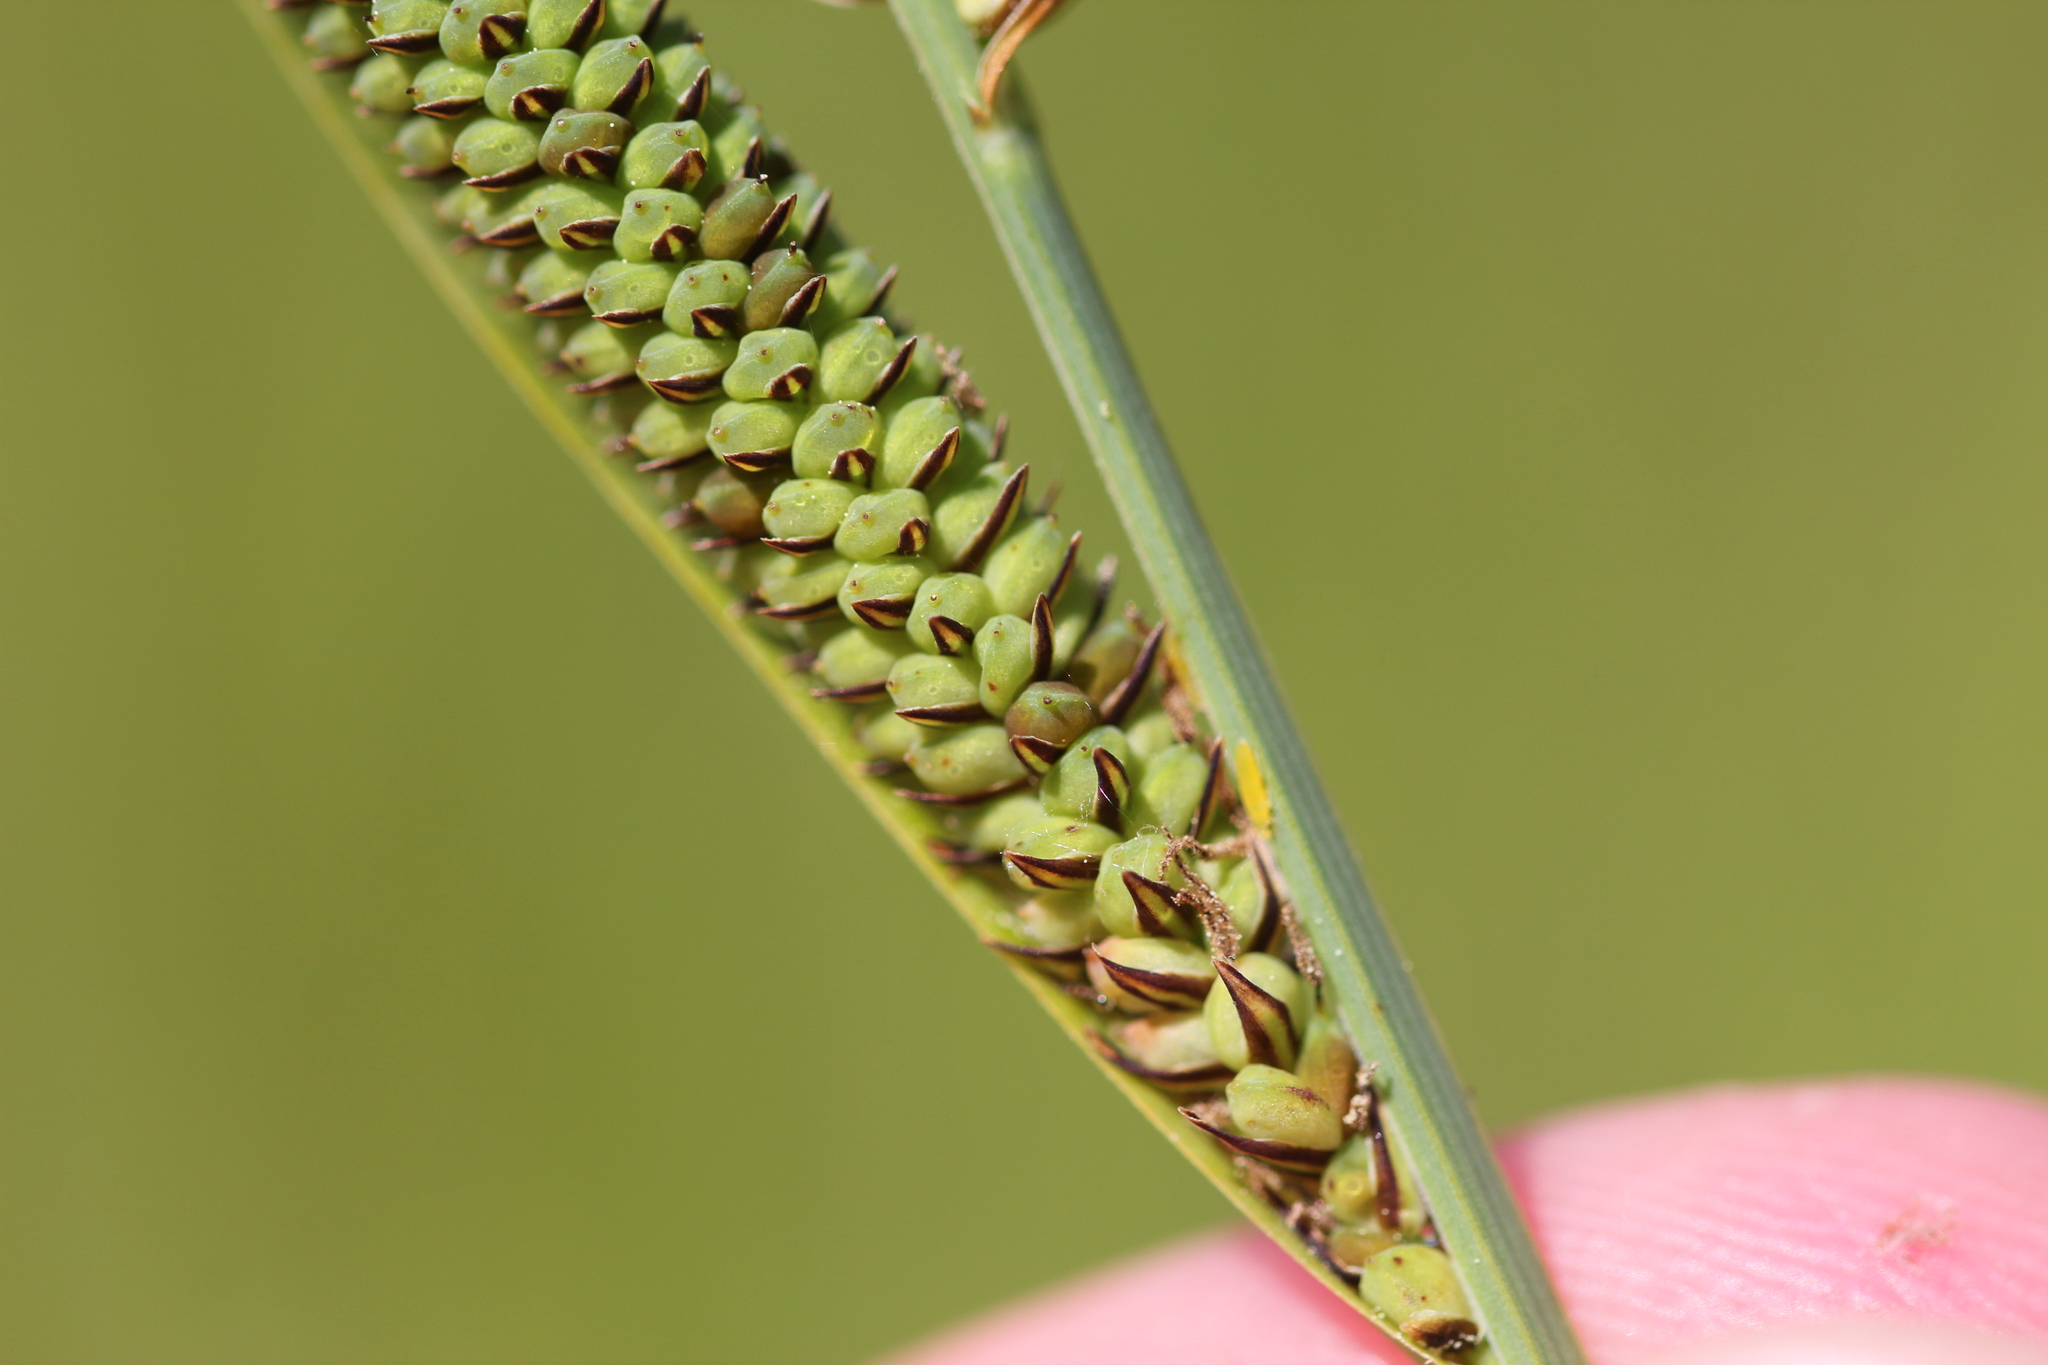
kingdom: Plantae
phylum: Tracheophyta
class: Liliopsida
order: Poales
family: Cyperaceae
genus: Carex
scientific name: Carex haydenii
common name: Hayden's sedge
